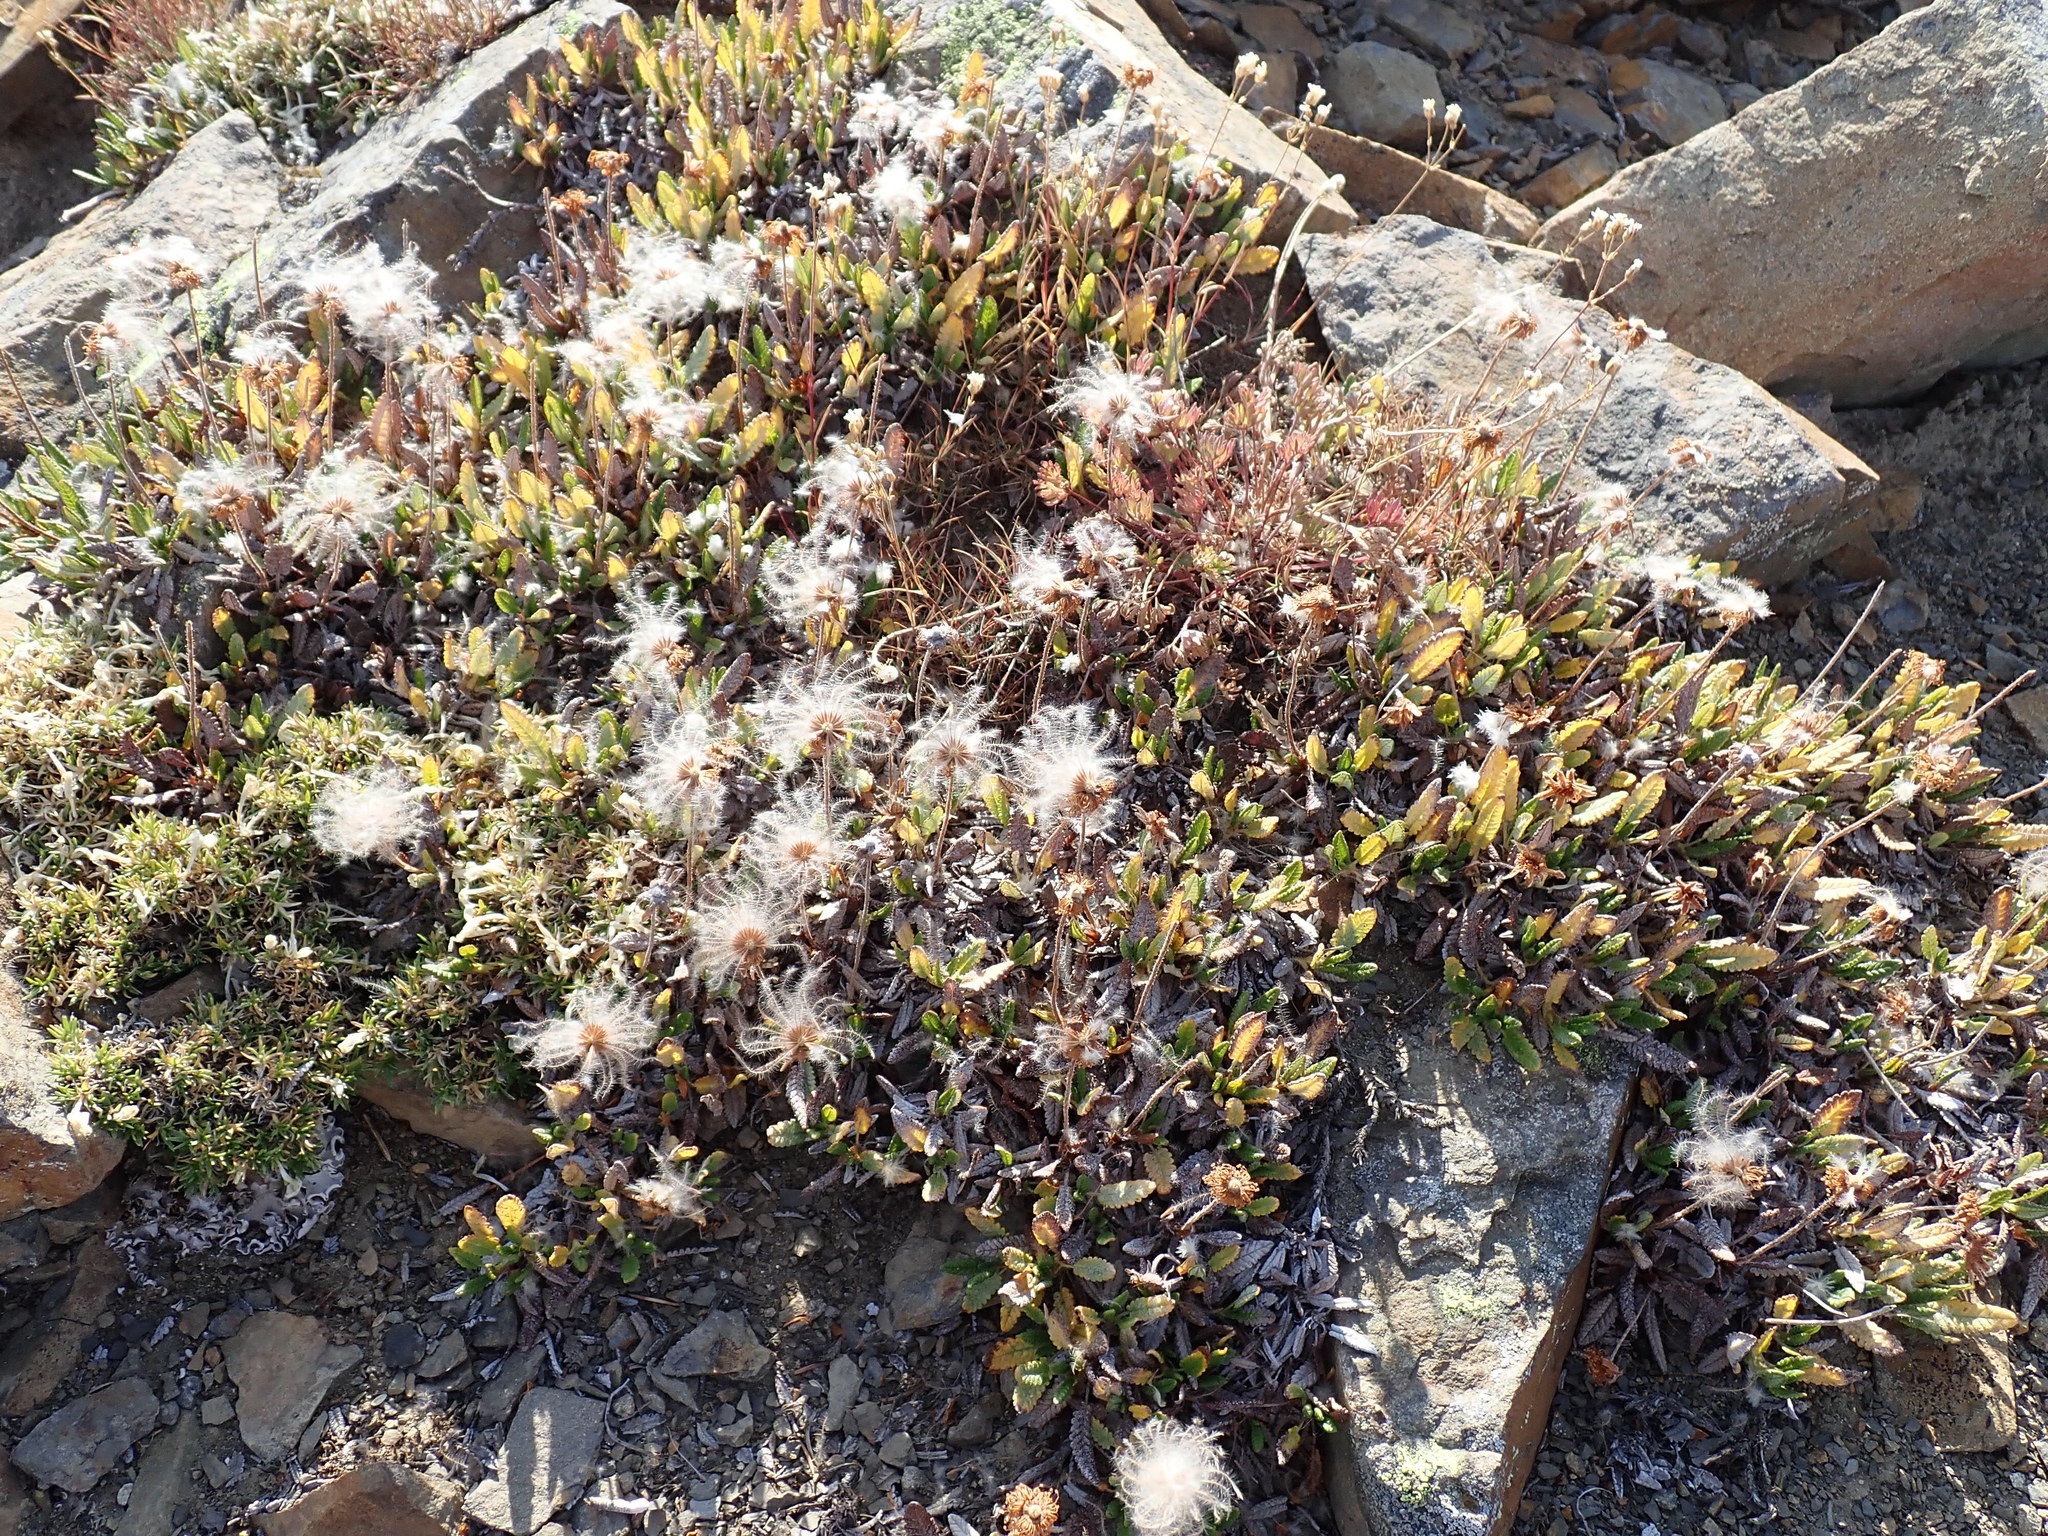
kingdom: Plantae
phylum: Tracheophyta
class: Magnoliopsida
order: Rosales
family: Rosaceae
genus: Dryas
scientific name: Dryas octopetala
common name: Eight-petal mountain-avens
